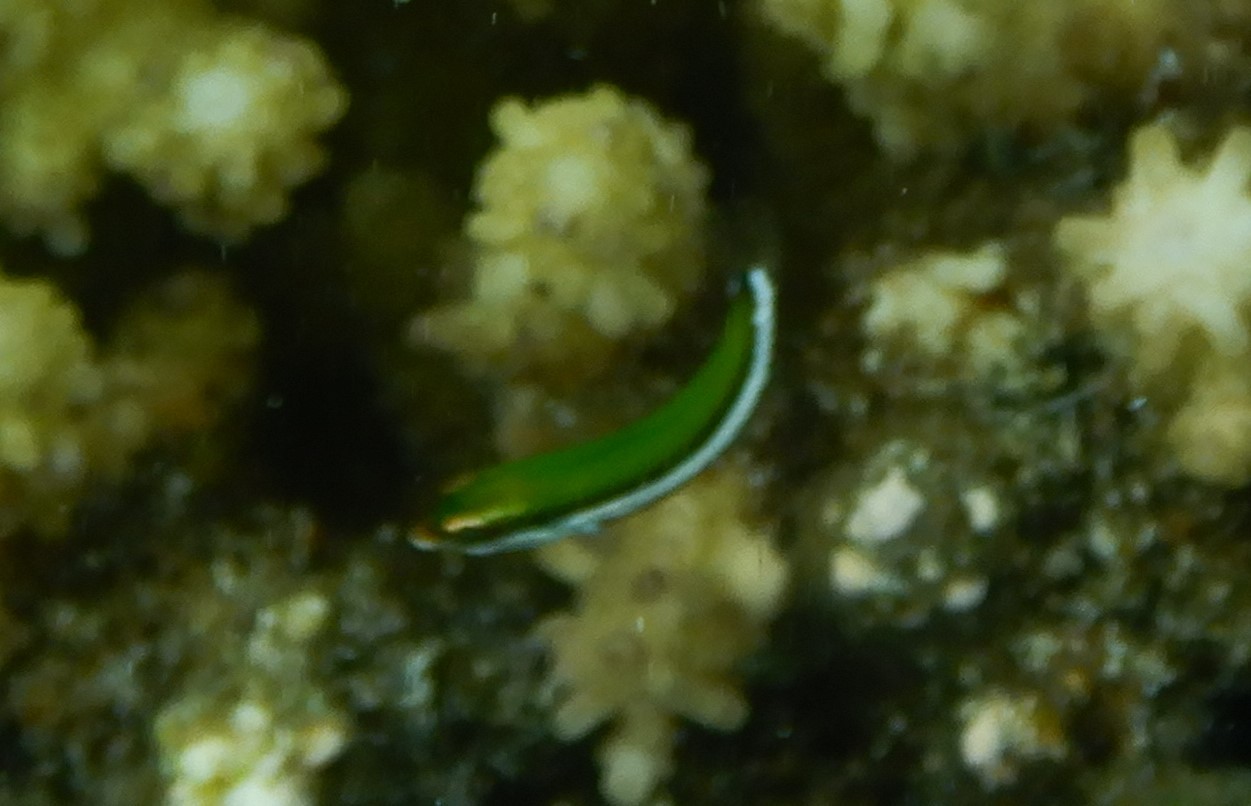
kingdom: Animalia
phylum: Chordata
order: Perciformes
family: Labridae
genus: Gomphosus
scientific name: Gomphosus varius
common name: Bird wrasse
